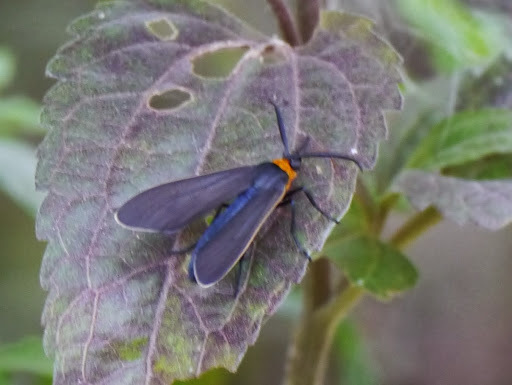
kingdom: Animalia
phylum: Arthropoda
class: Insecta
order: Lepidoptera
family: Erebidae
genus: Cisseps
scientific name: Cisseps fulvicollis
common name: Yellow-collared scape moth
